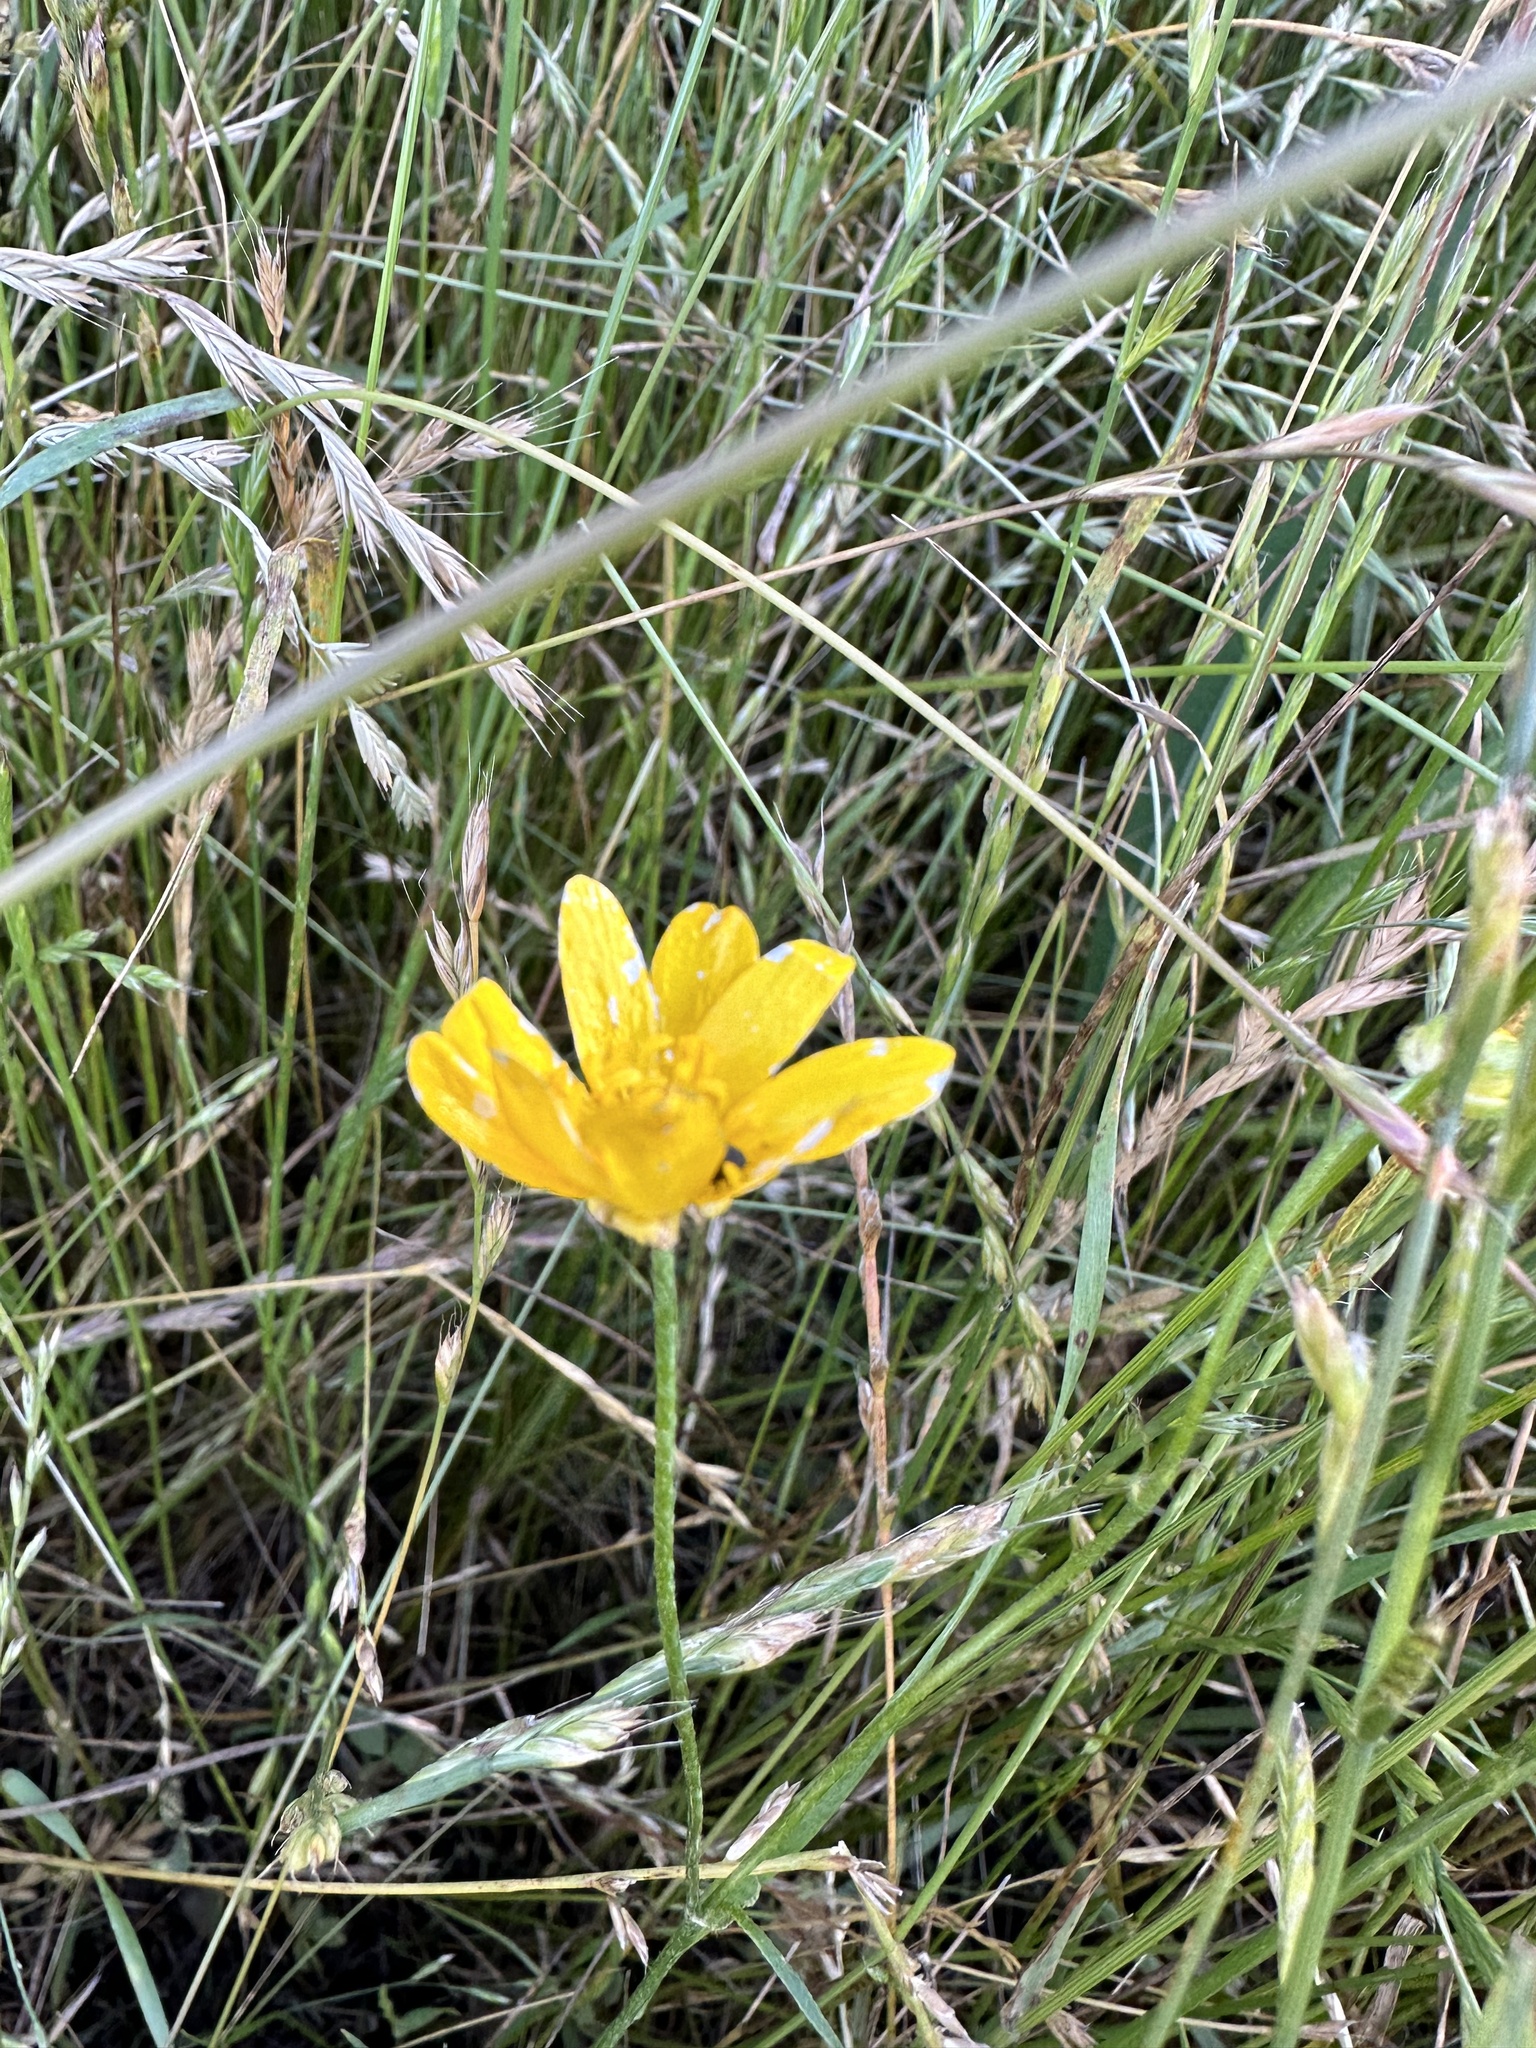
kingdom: Plantae
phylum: Tracheophyta
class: Magnoliopsida
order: Ranunculales
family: Ranunculaceae
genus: Ranunculus
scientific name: Ranunculus californicus
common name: California buttercup
